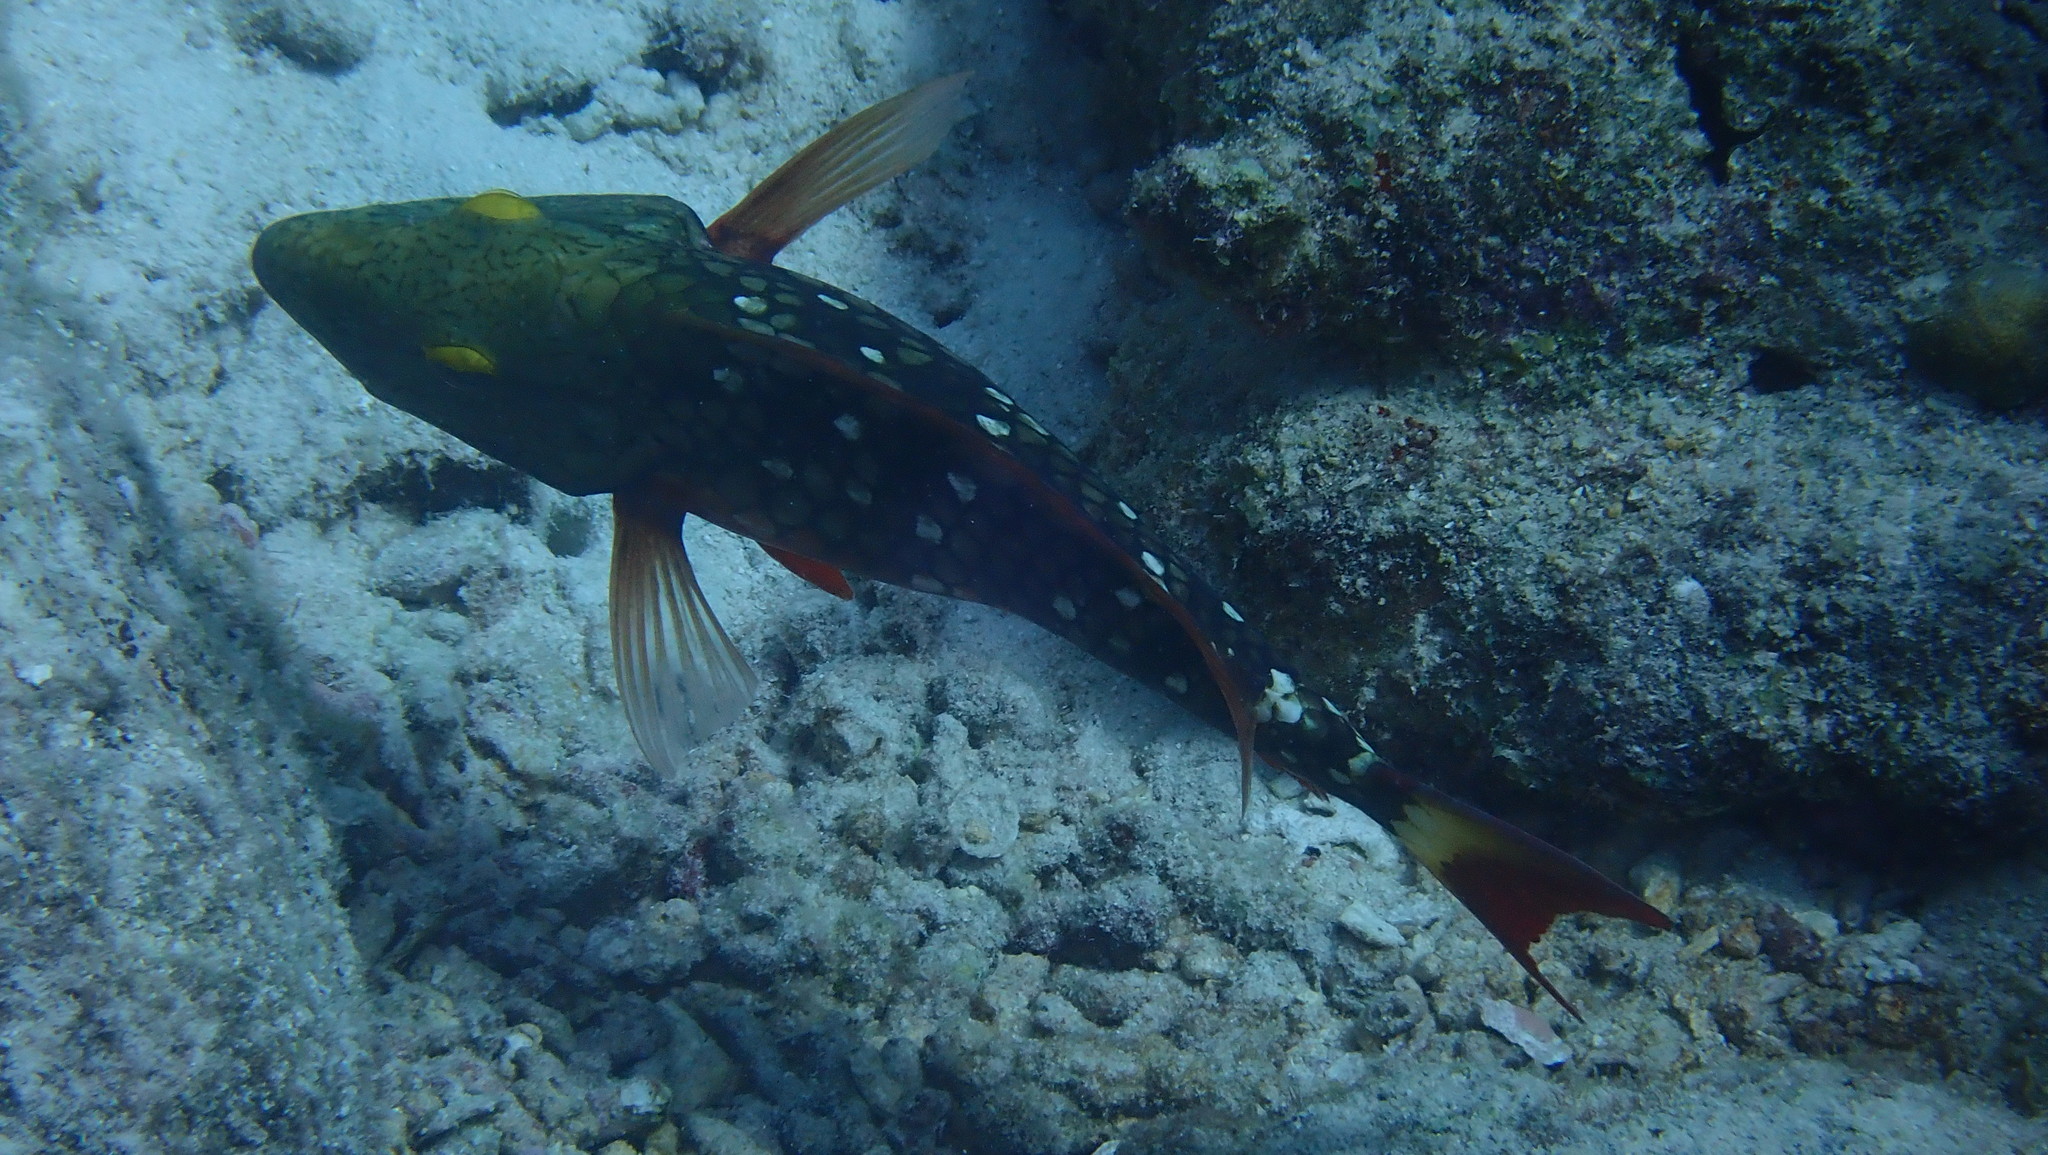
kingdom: Animalia
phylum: Chordata
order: Perciformes
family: Scaridae
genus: Sparisoma
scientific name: Sparisoma viride
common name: Stoplight parrotfish
